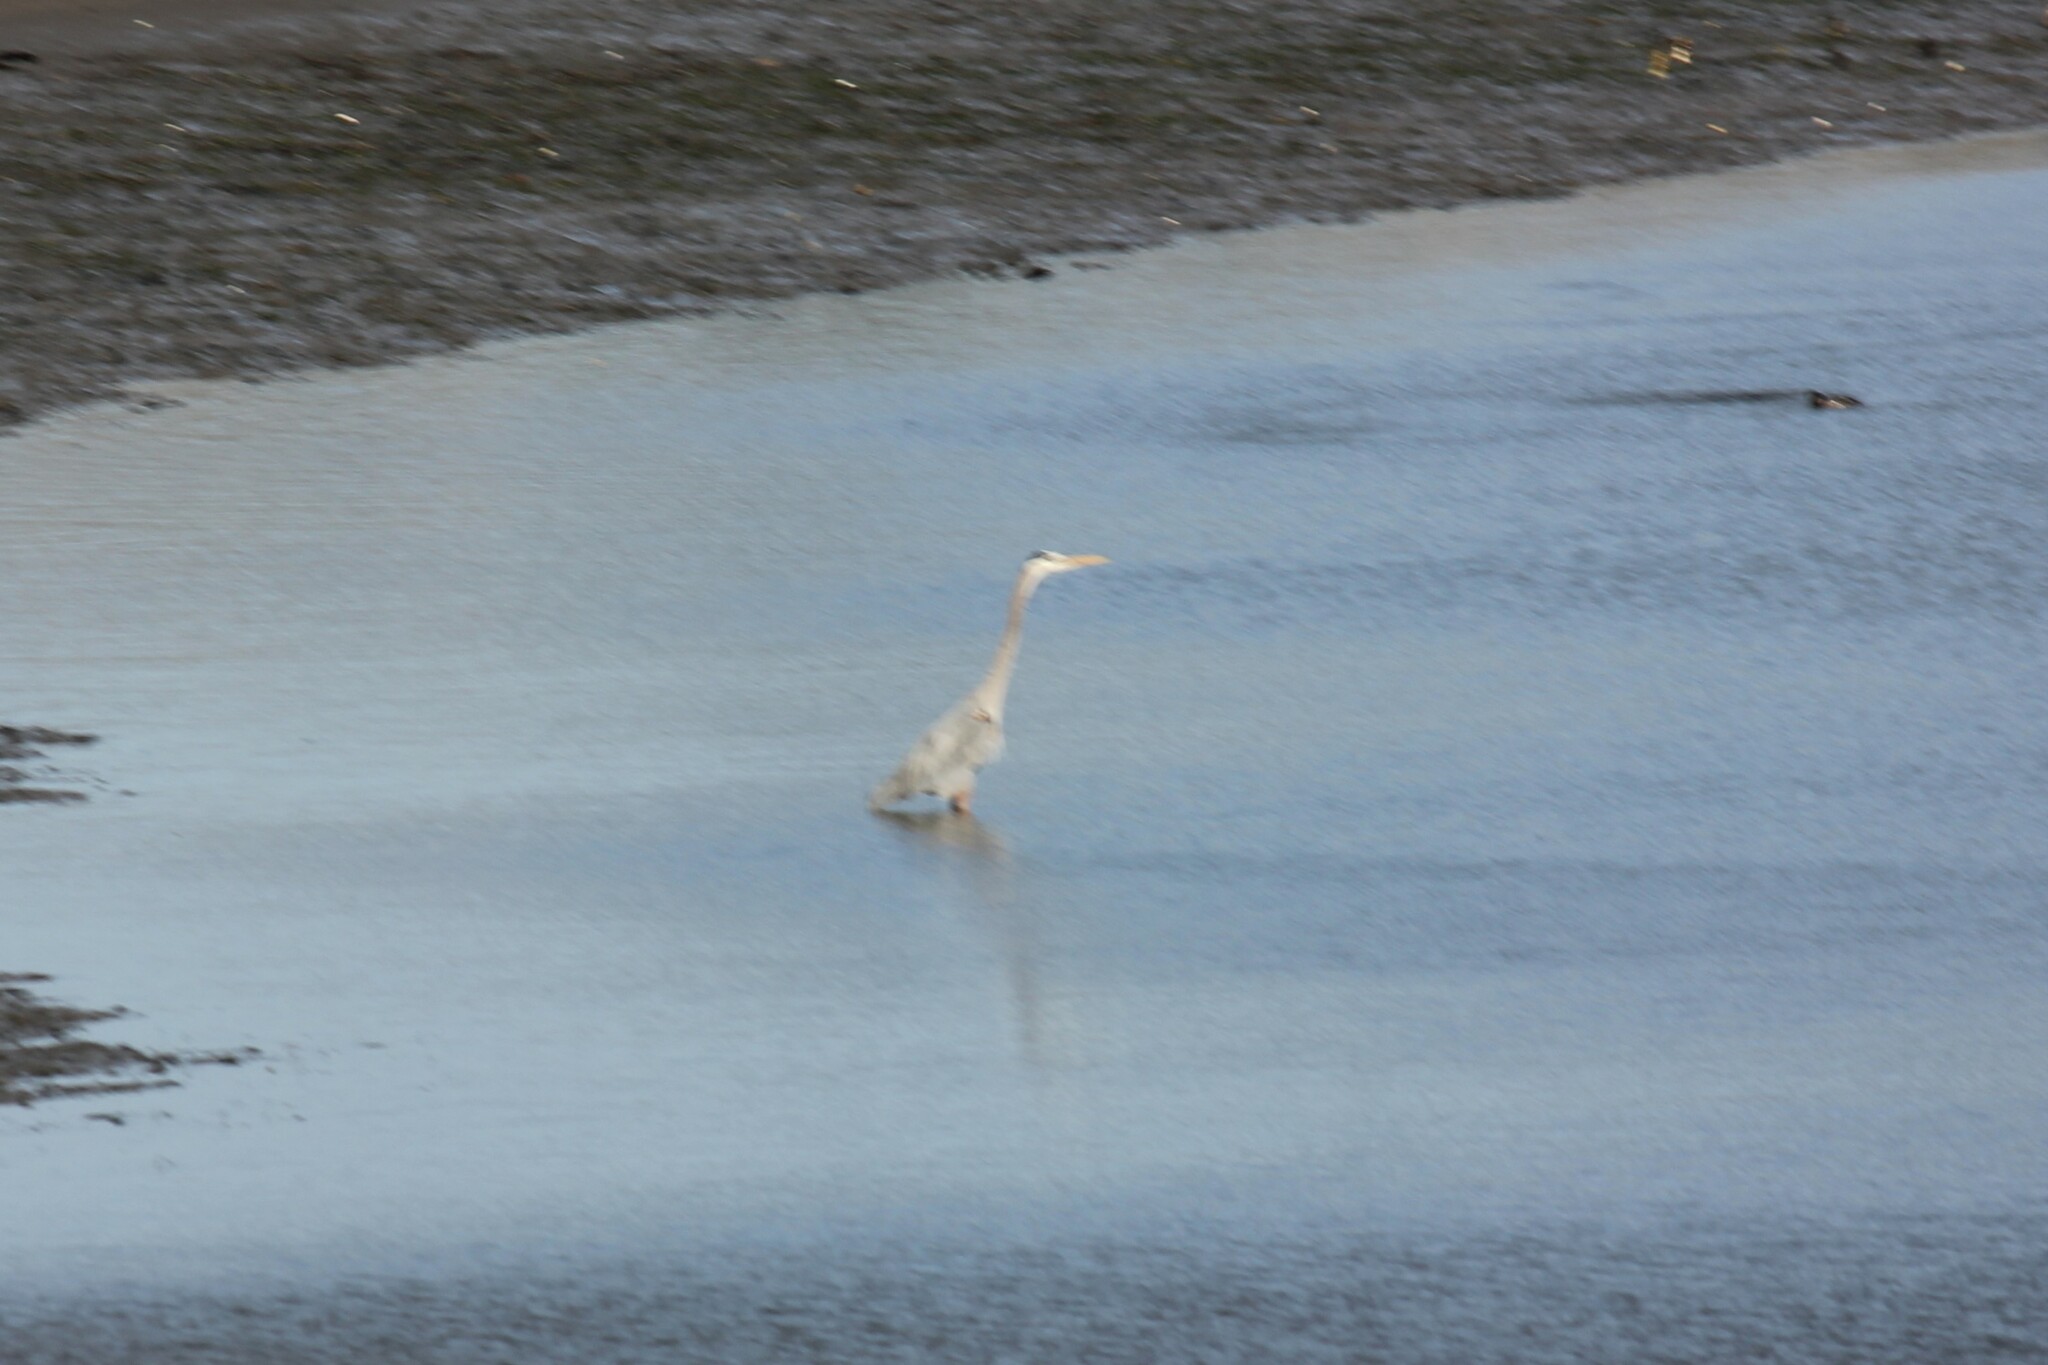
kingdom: Animalia
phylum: Chordata
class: Aves
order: Pelecaniformes
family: Ardeidae
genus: Ardea
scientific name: Ardea herodias
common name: Great blue heron
